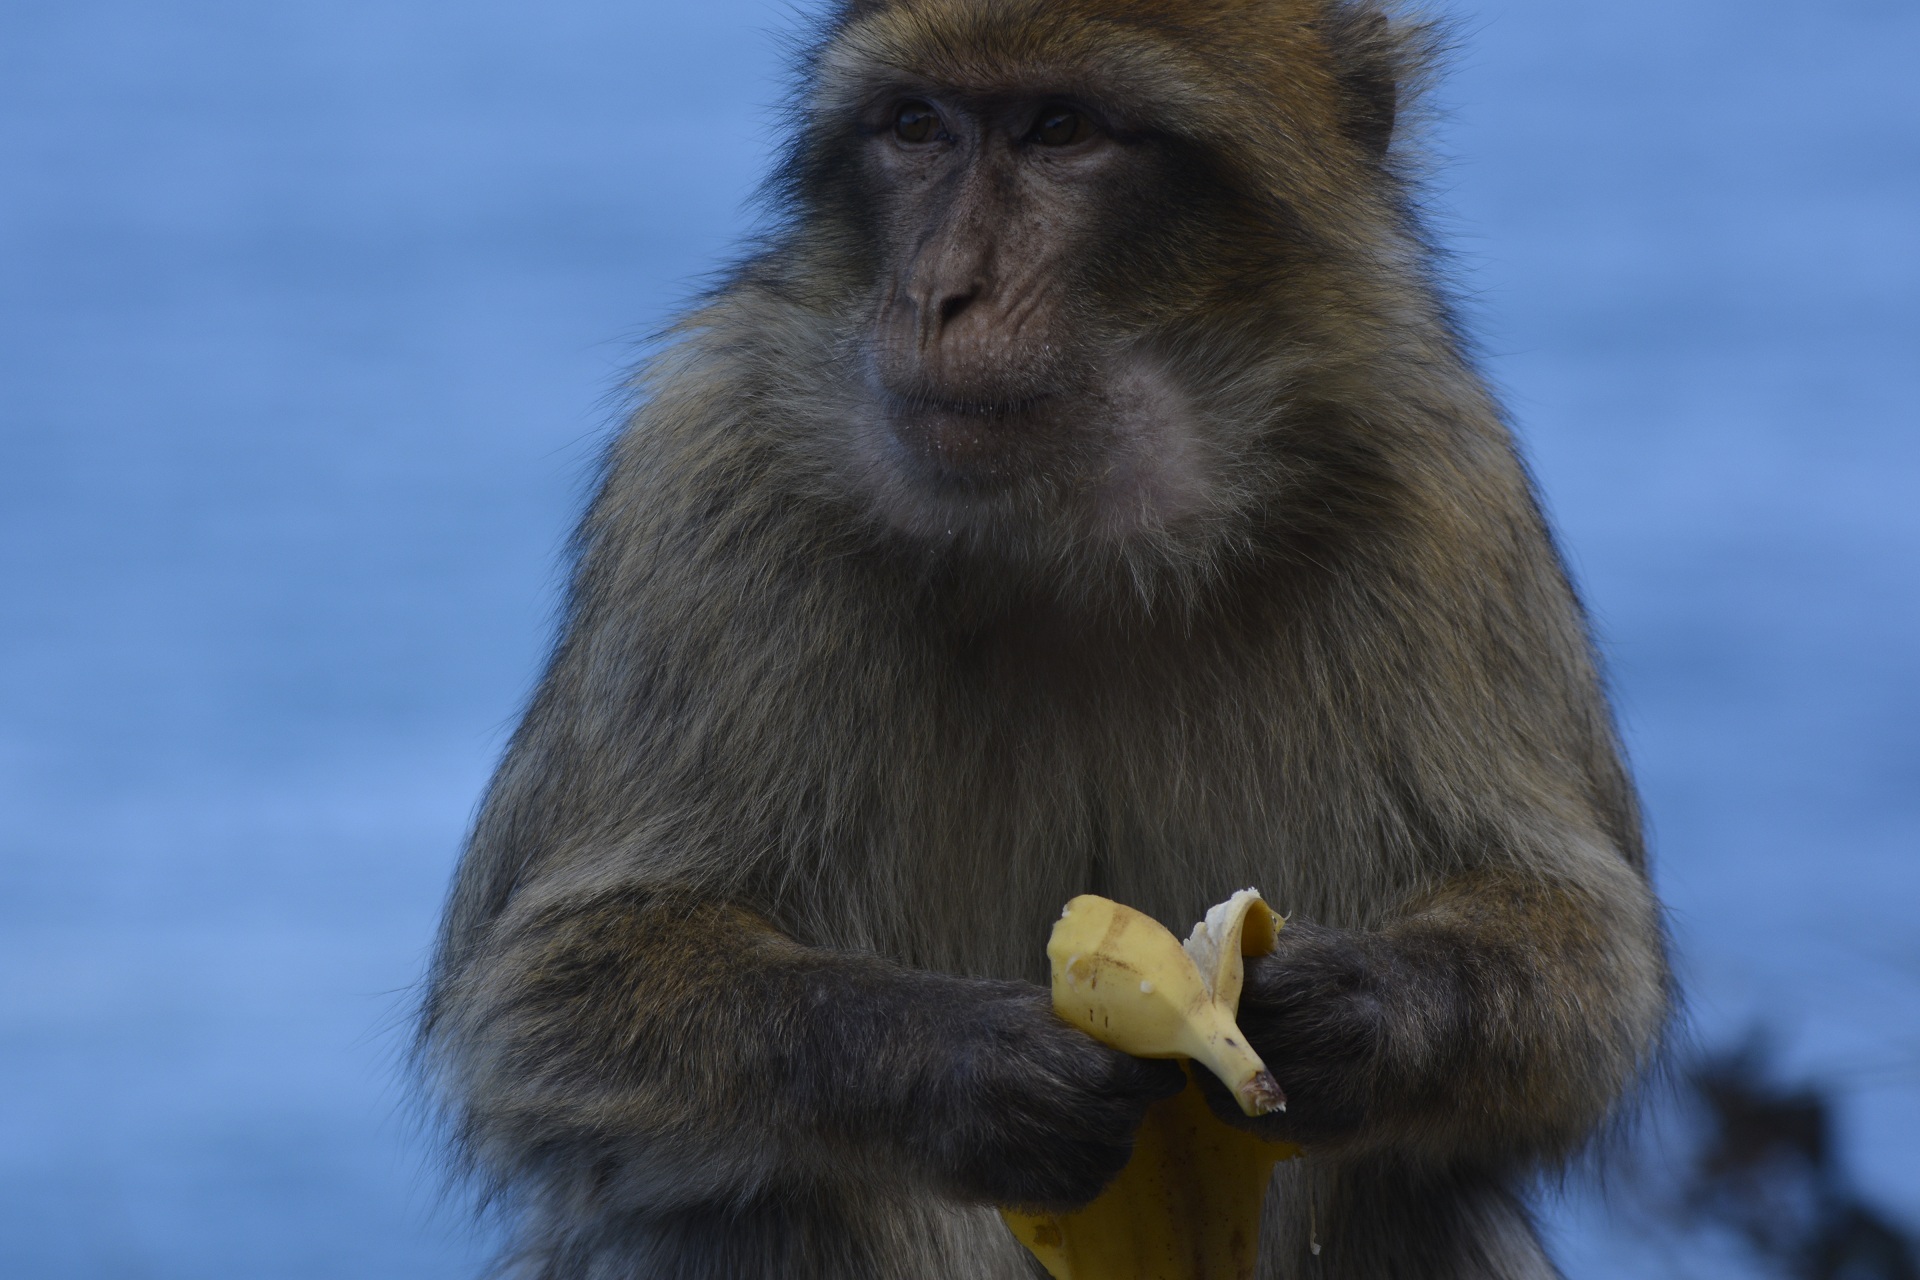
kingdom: Animalia
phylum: Chordata
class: Mammalia
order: Primates
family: Cercopithecidae
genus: Macaca
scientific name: Macaca sylvanus
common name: Barbary macaque
